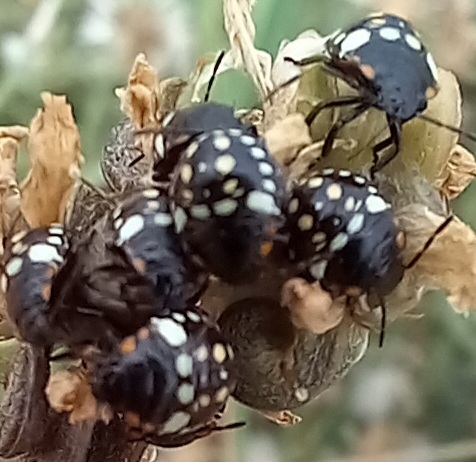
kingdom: Animalia
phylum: Arthropoda
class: Insecta
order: Hemiptera
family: Pentatomidae
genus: Nezara
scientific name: Nezara viridula
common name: Southern green stink bug
